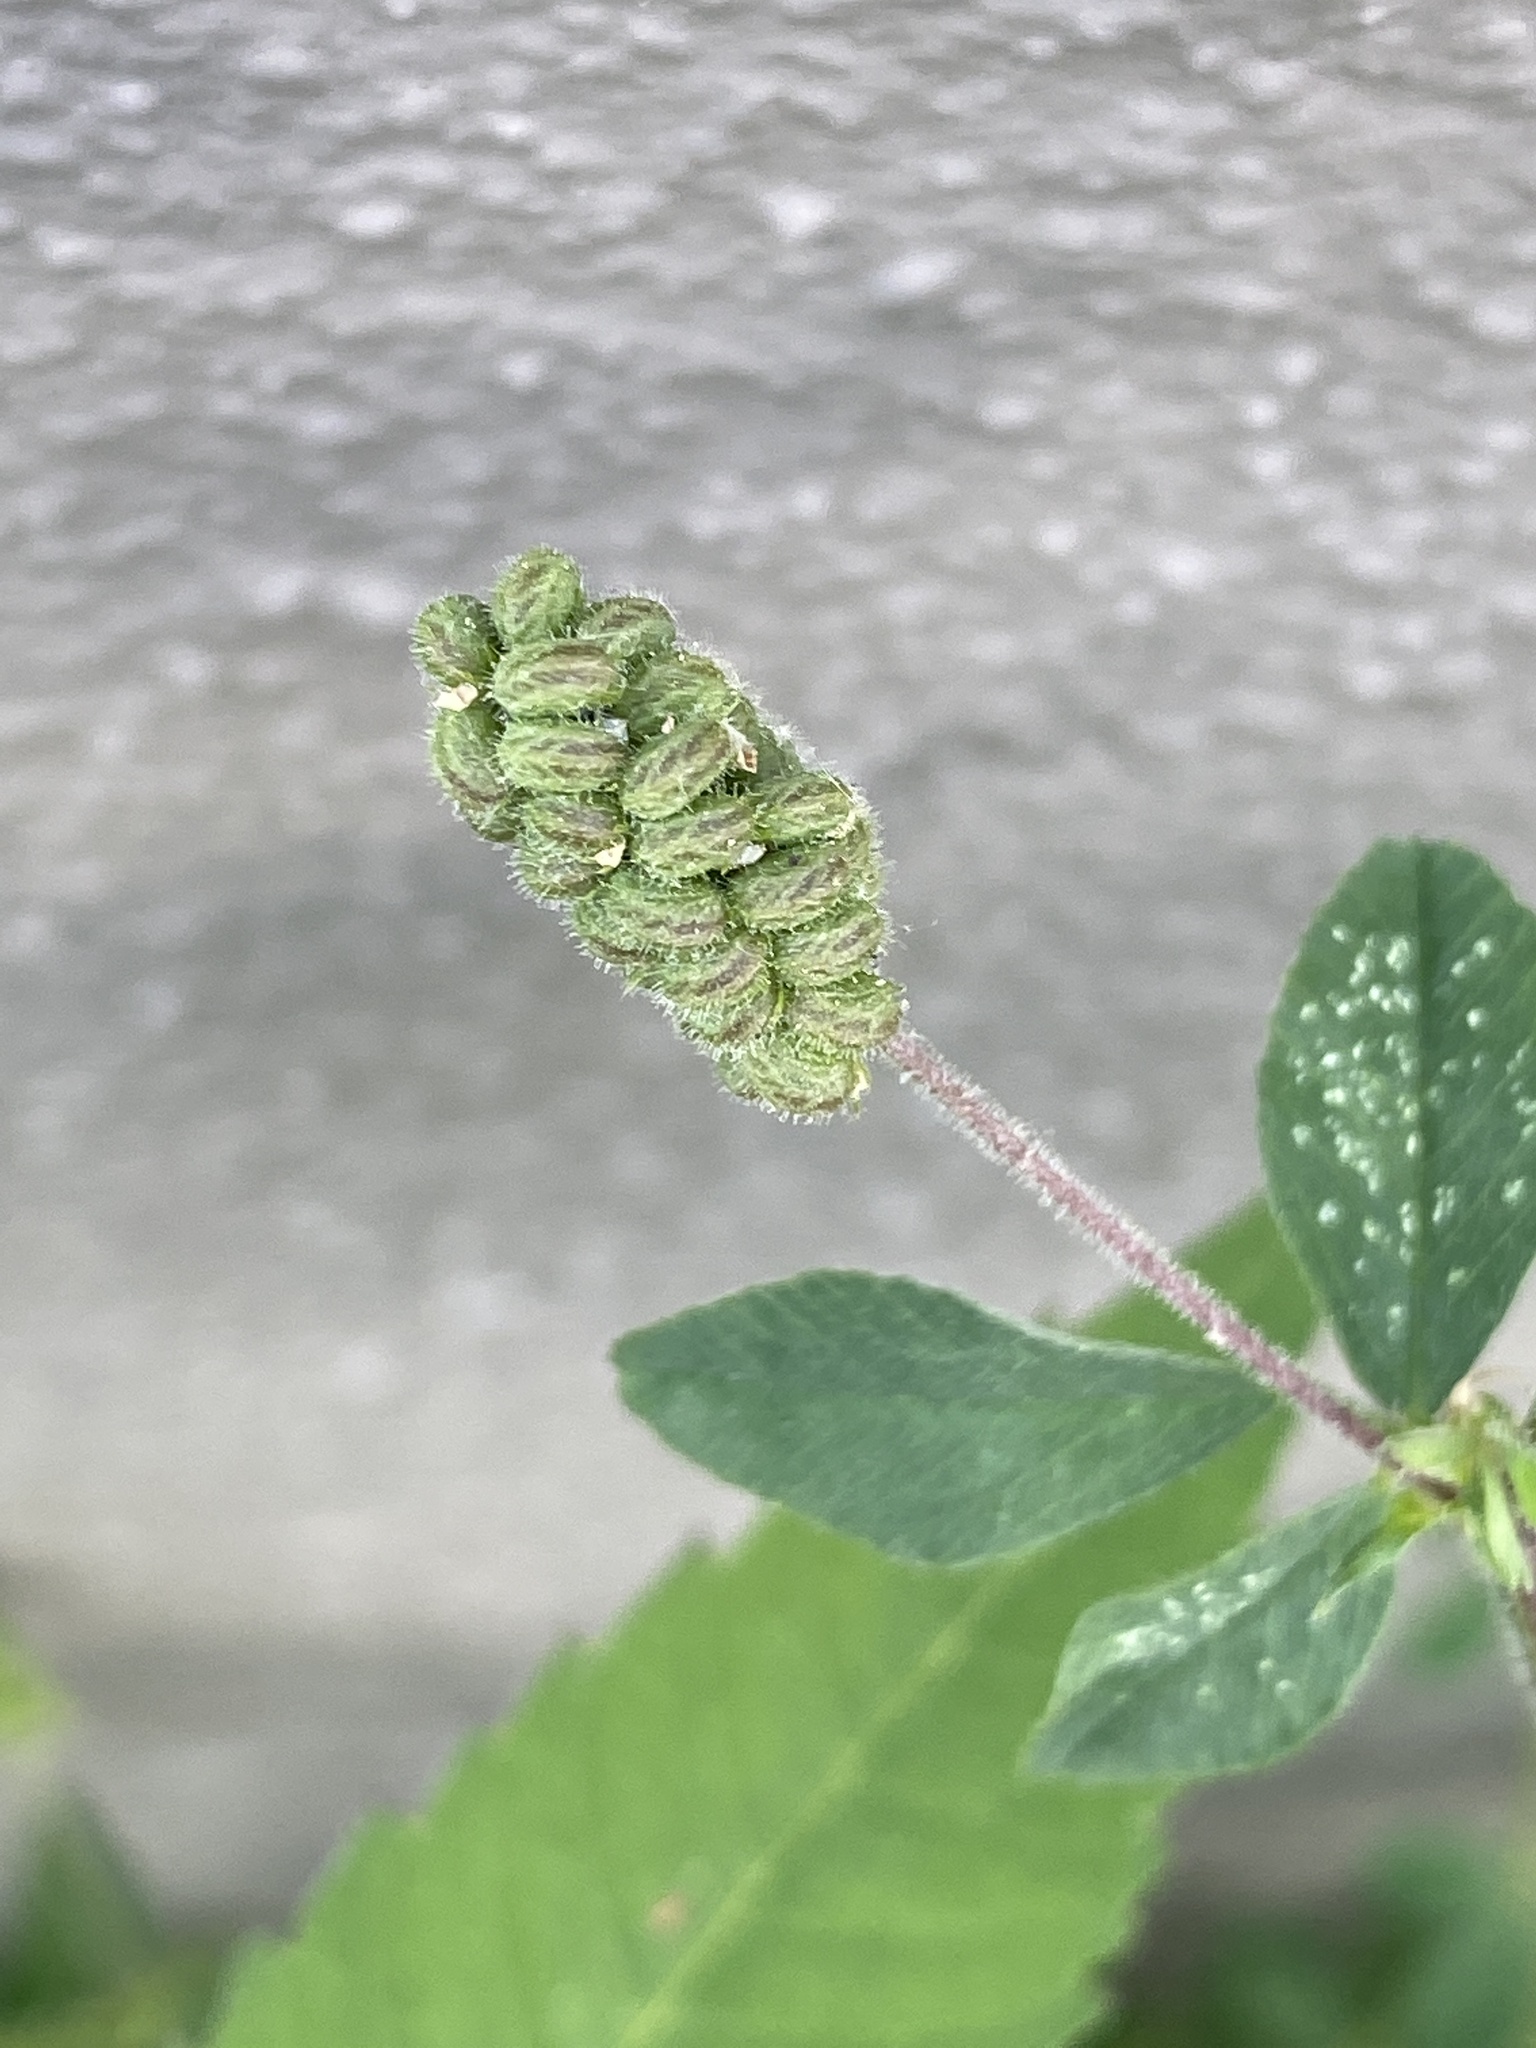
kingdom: Plantae
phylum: Tracheophyta
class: Magnoliopsida
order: Fabales
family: Fabaceae
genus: Medicago
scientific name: Medicago lupulina
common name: Black medick
